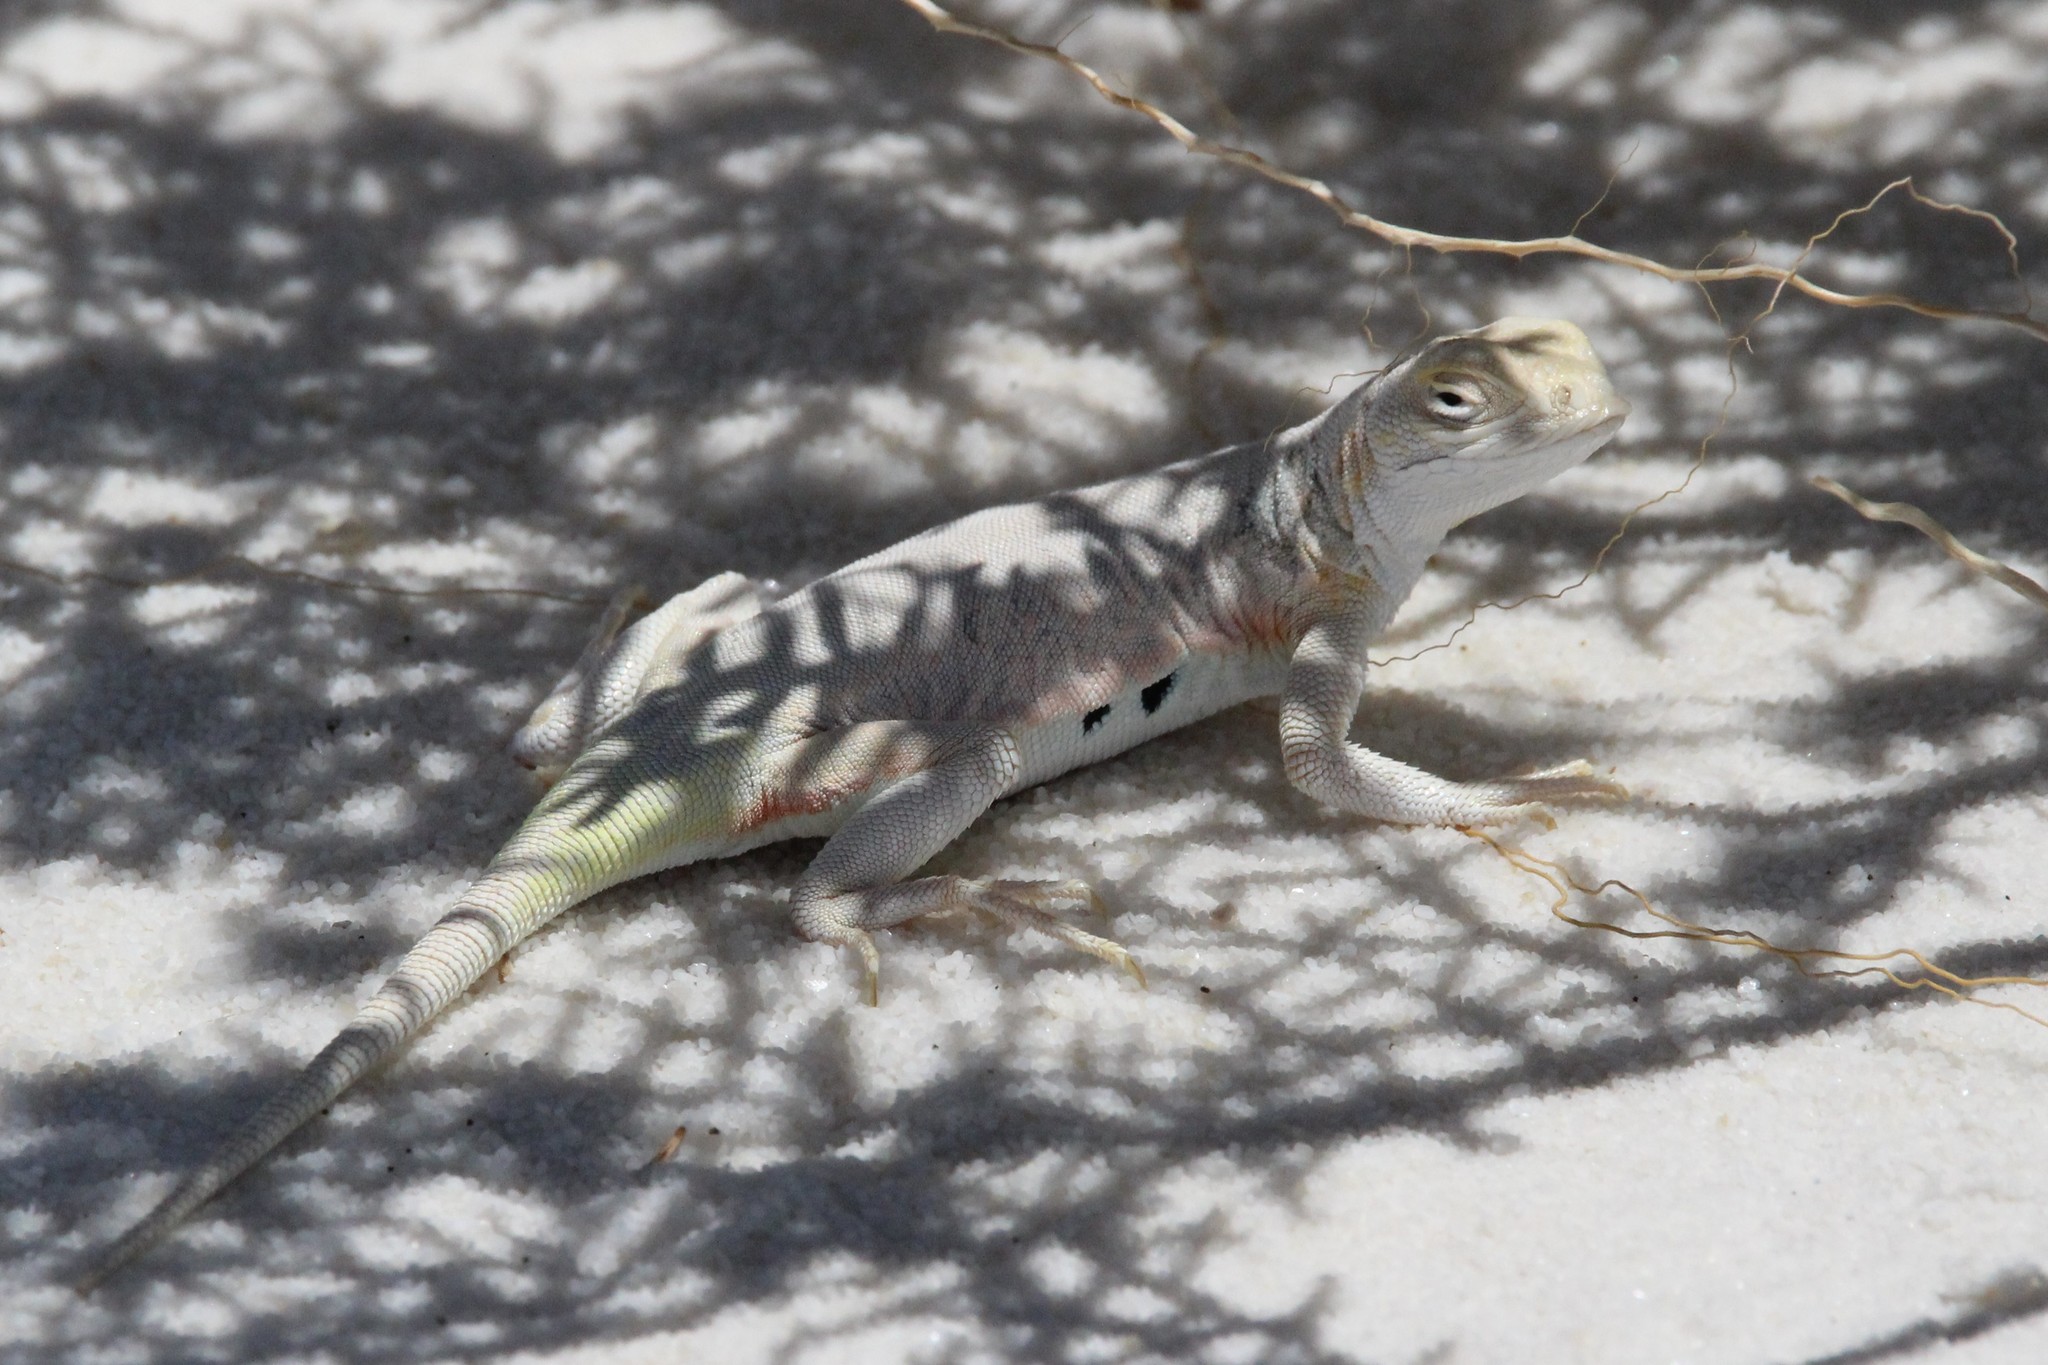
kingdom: Animalia
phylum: Chordata
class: Squamata
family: Phrynosomatidae
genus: Holbrookia
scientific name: Holbrookia maculata
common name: Lesser earless lizard
